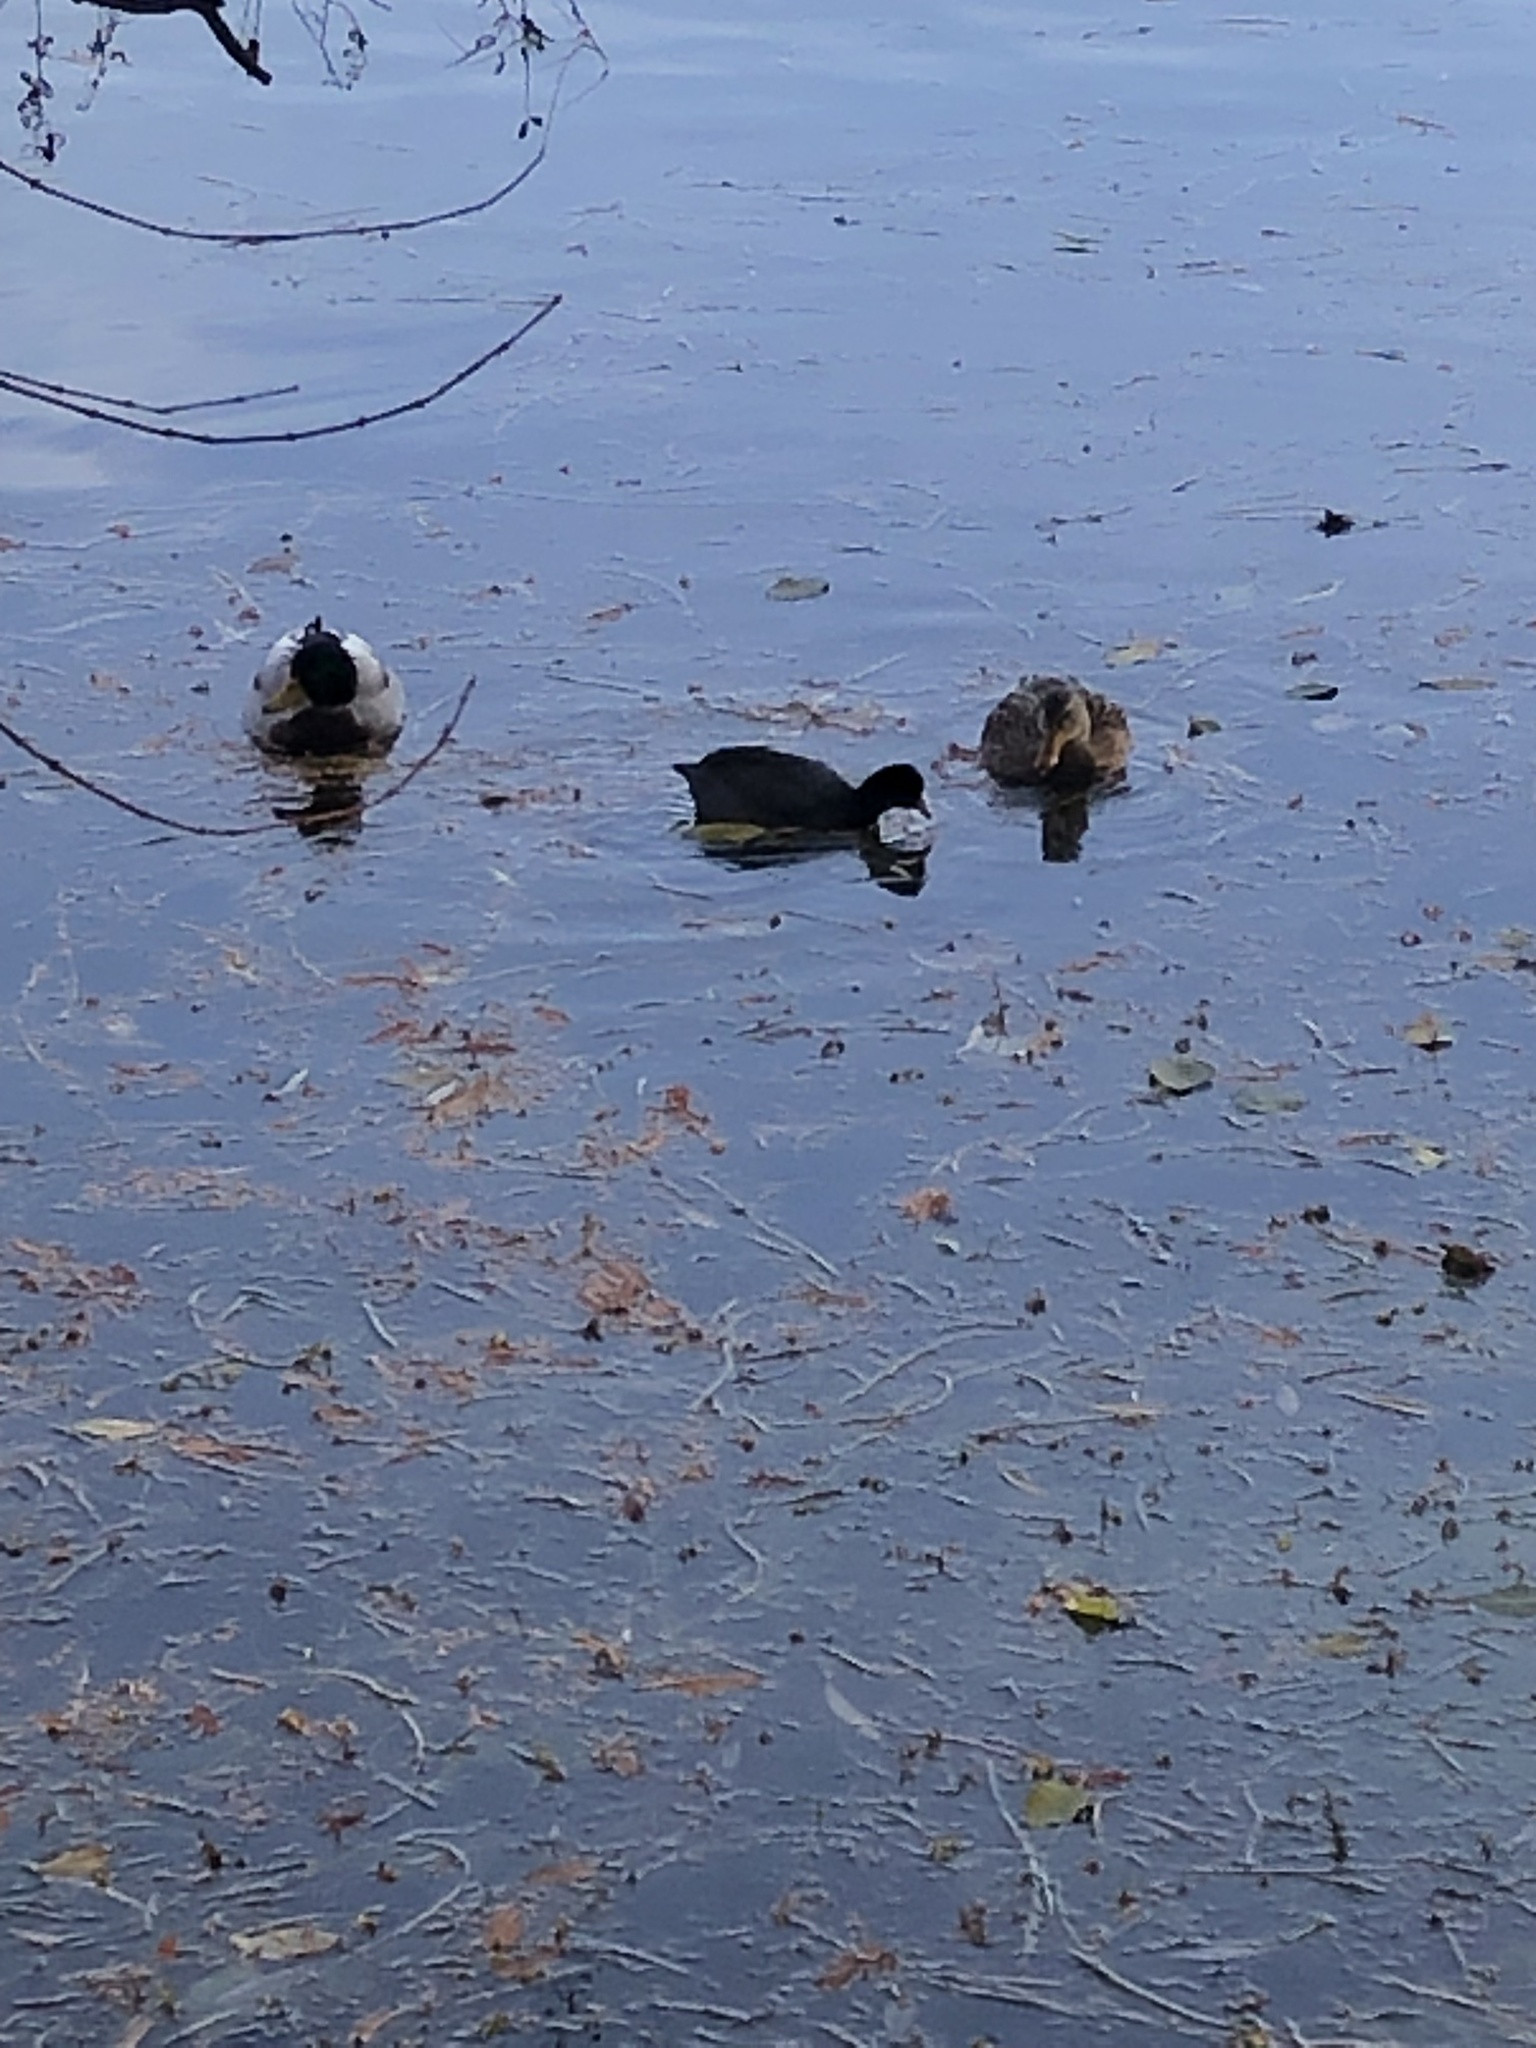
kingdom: Animalia
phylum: Chordata
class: Aves
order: Anseriformes
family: Anatidae
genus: Anas
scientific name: Anas platyrhynchos
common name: Mallard
